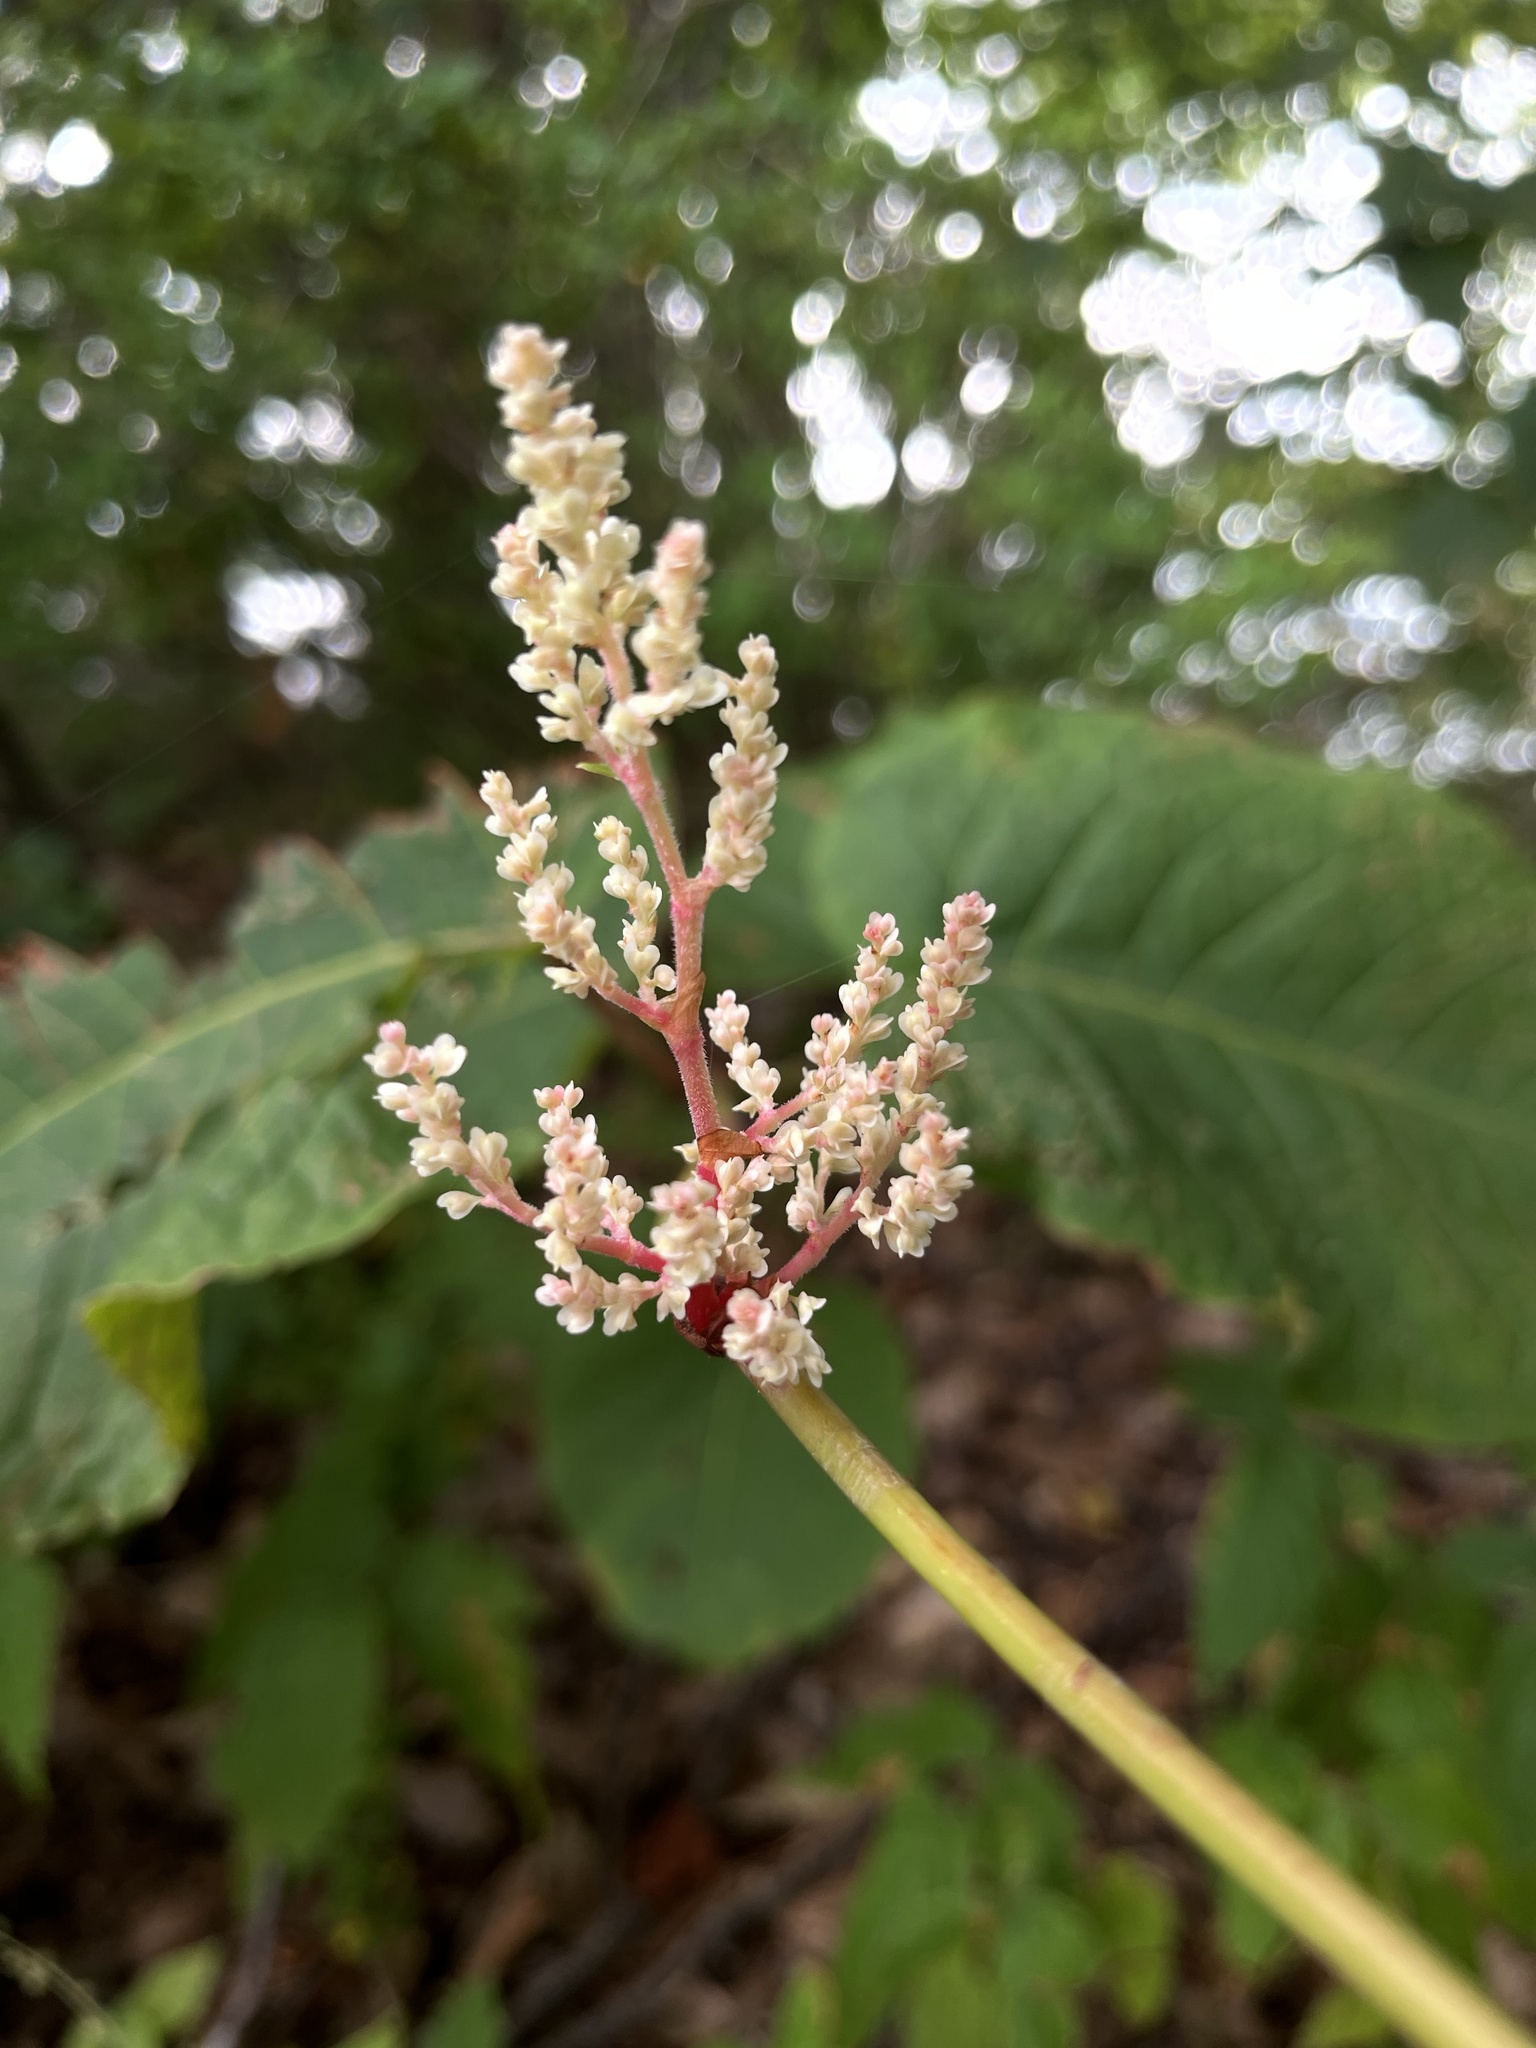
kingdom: Plantae
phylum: Tracheophyta
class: Magnoliopsida
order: Caryophyllales
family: Polygonaceae
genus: Reynoutria
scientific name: Reynoutria japonica
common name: Japanese knotweed
